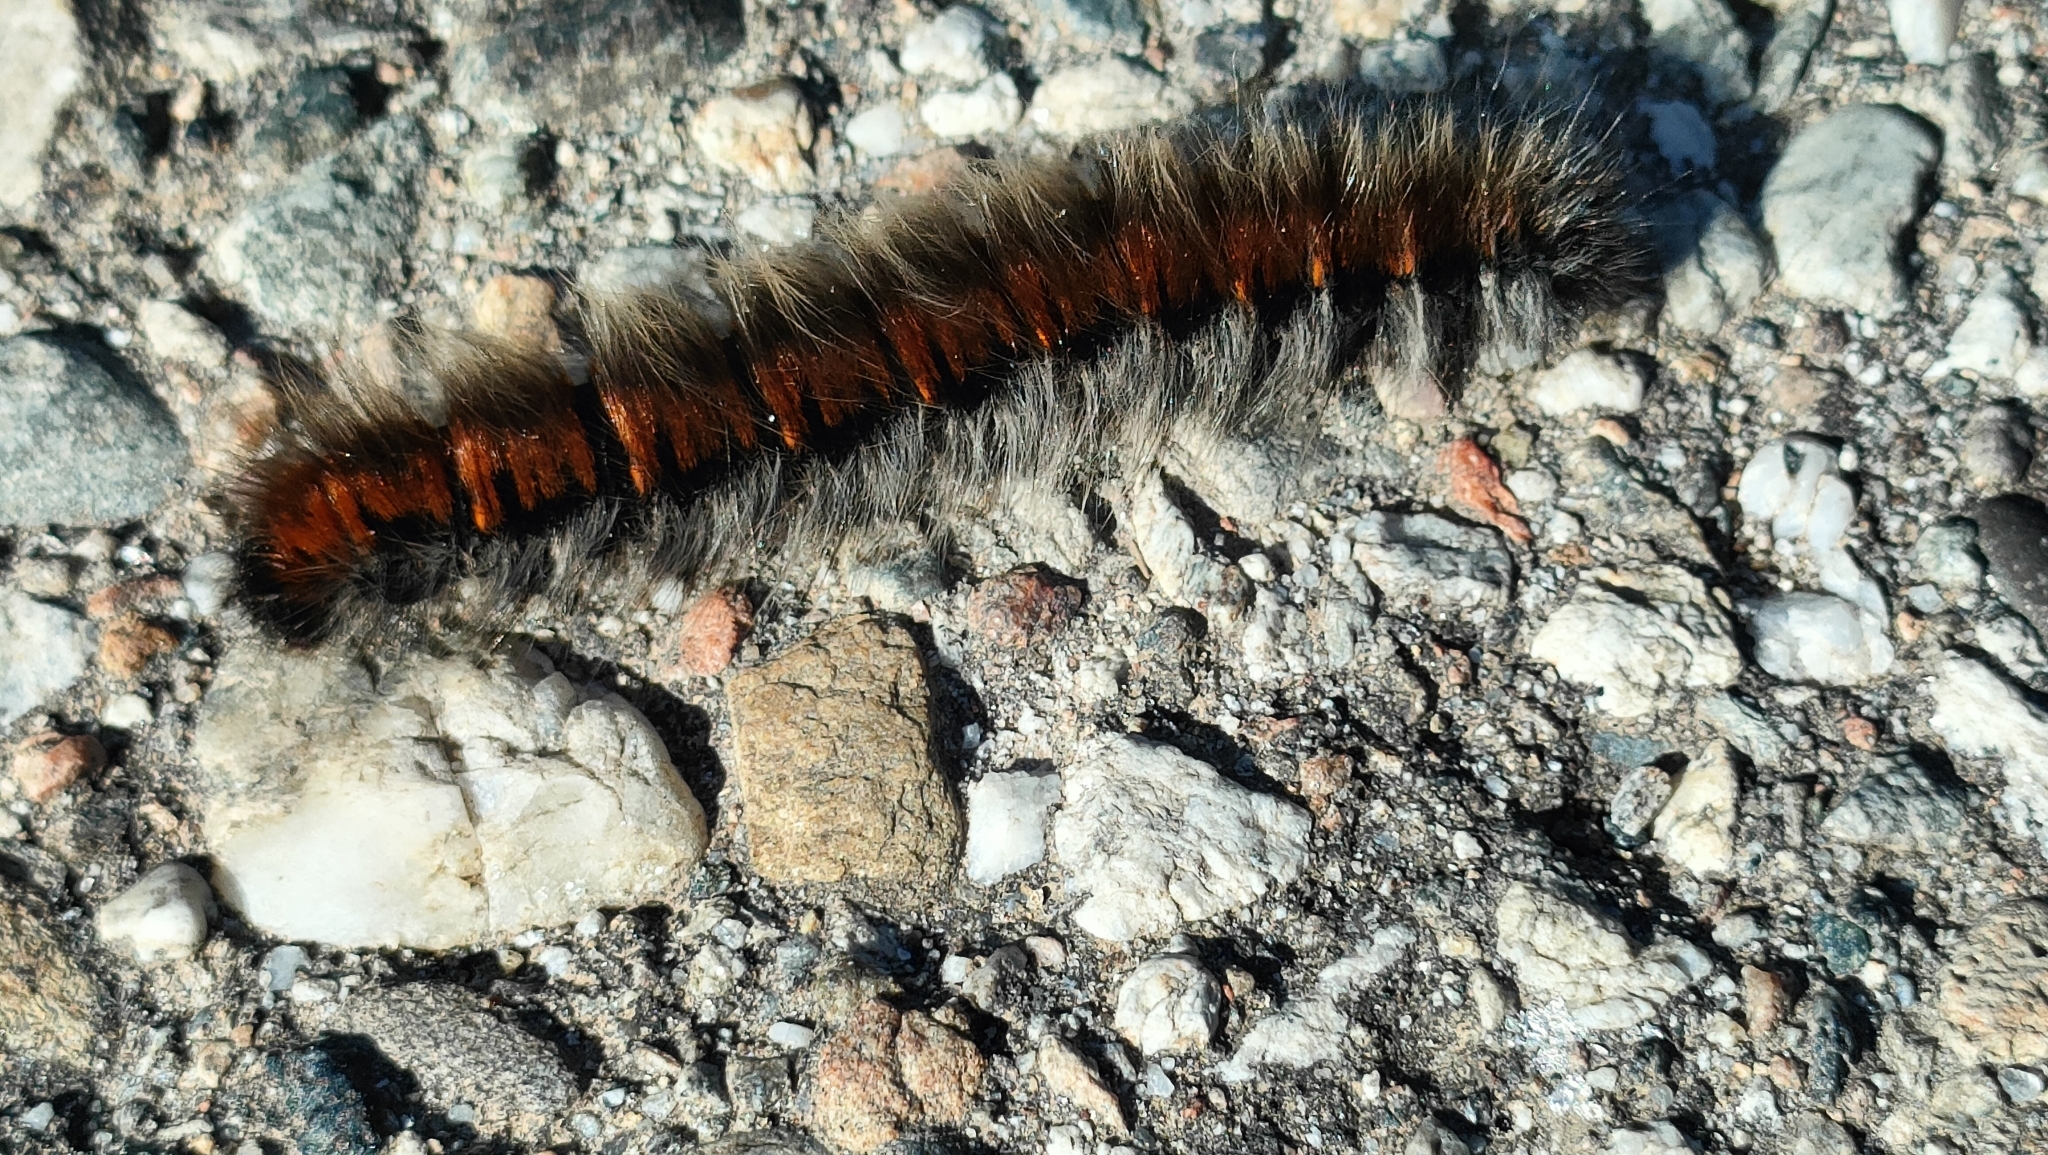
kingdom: Animalia
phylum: Arthropoda
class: Insecta
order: Lepidoptera
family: Lasiocampidae
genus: Macrothylacia
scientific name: Macrothylacia rubi
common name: Fox moth
